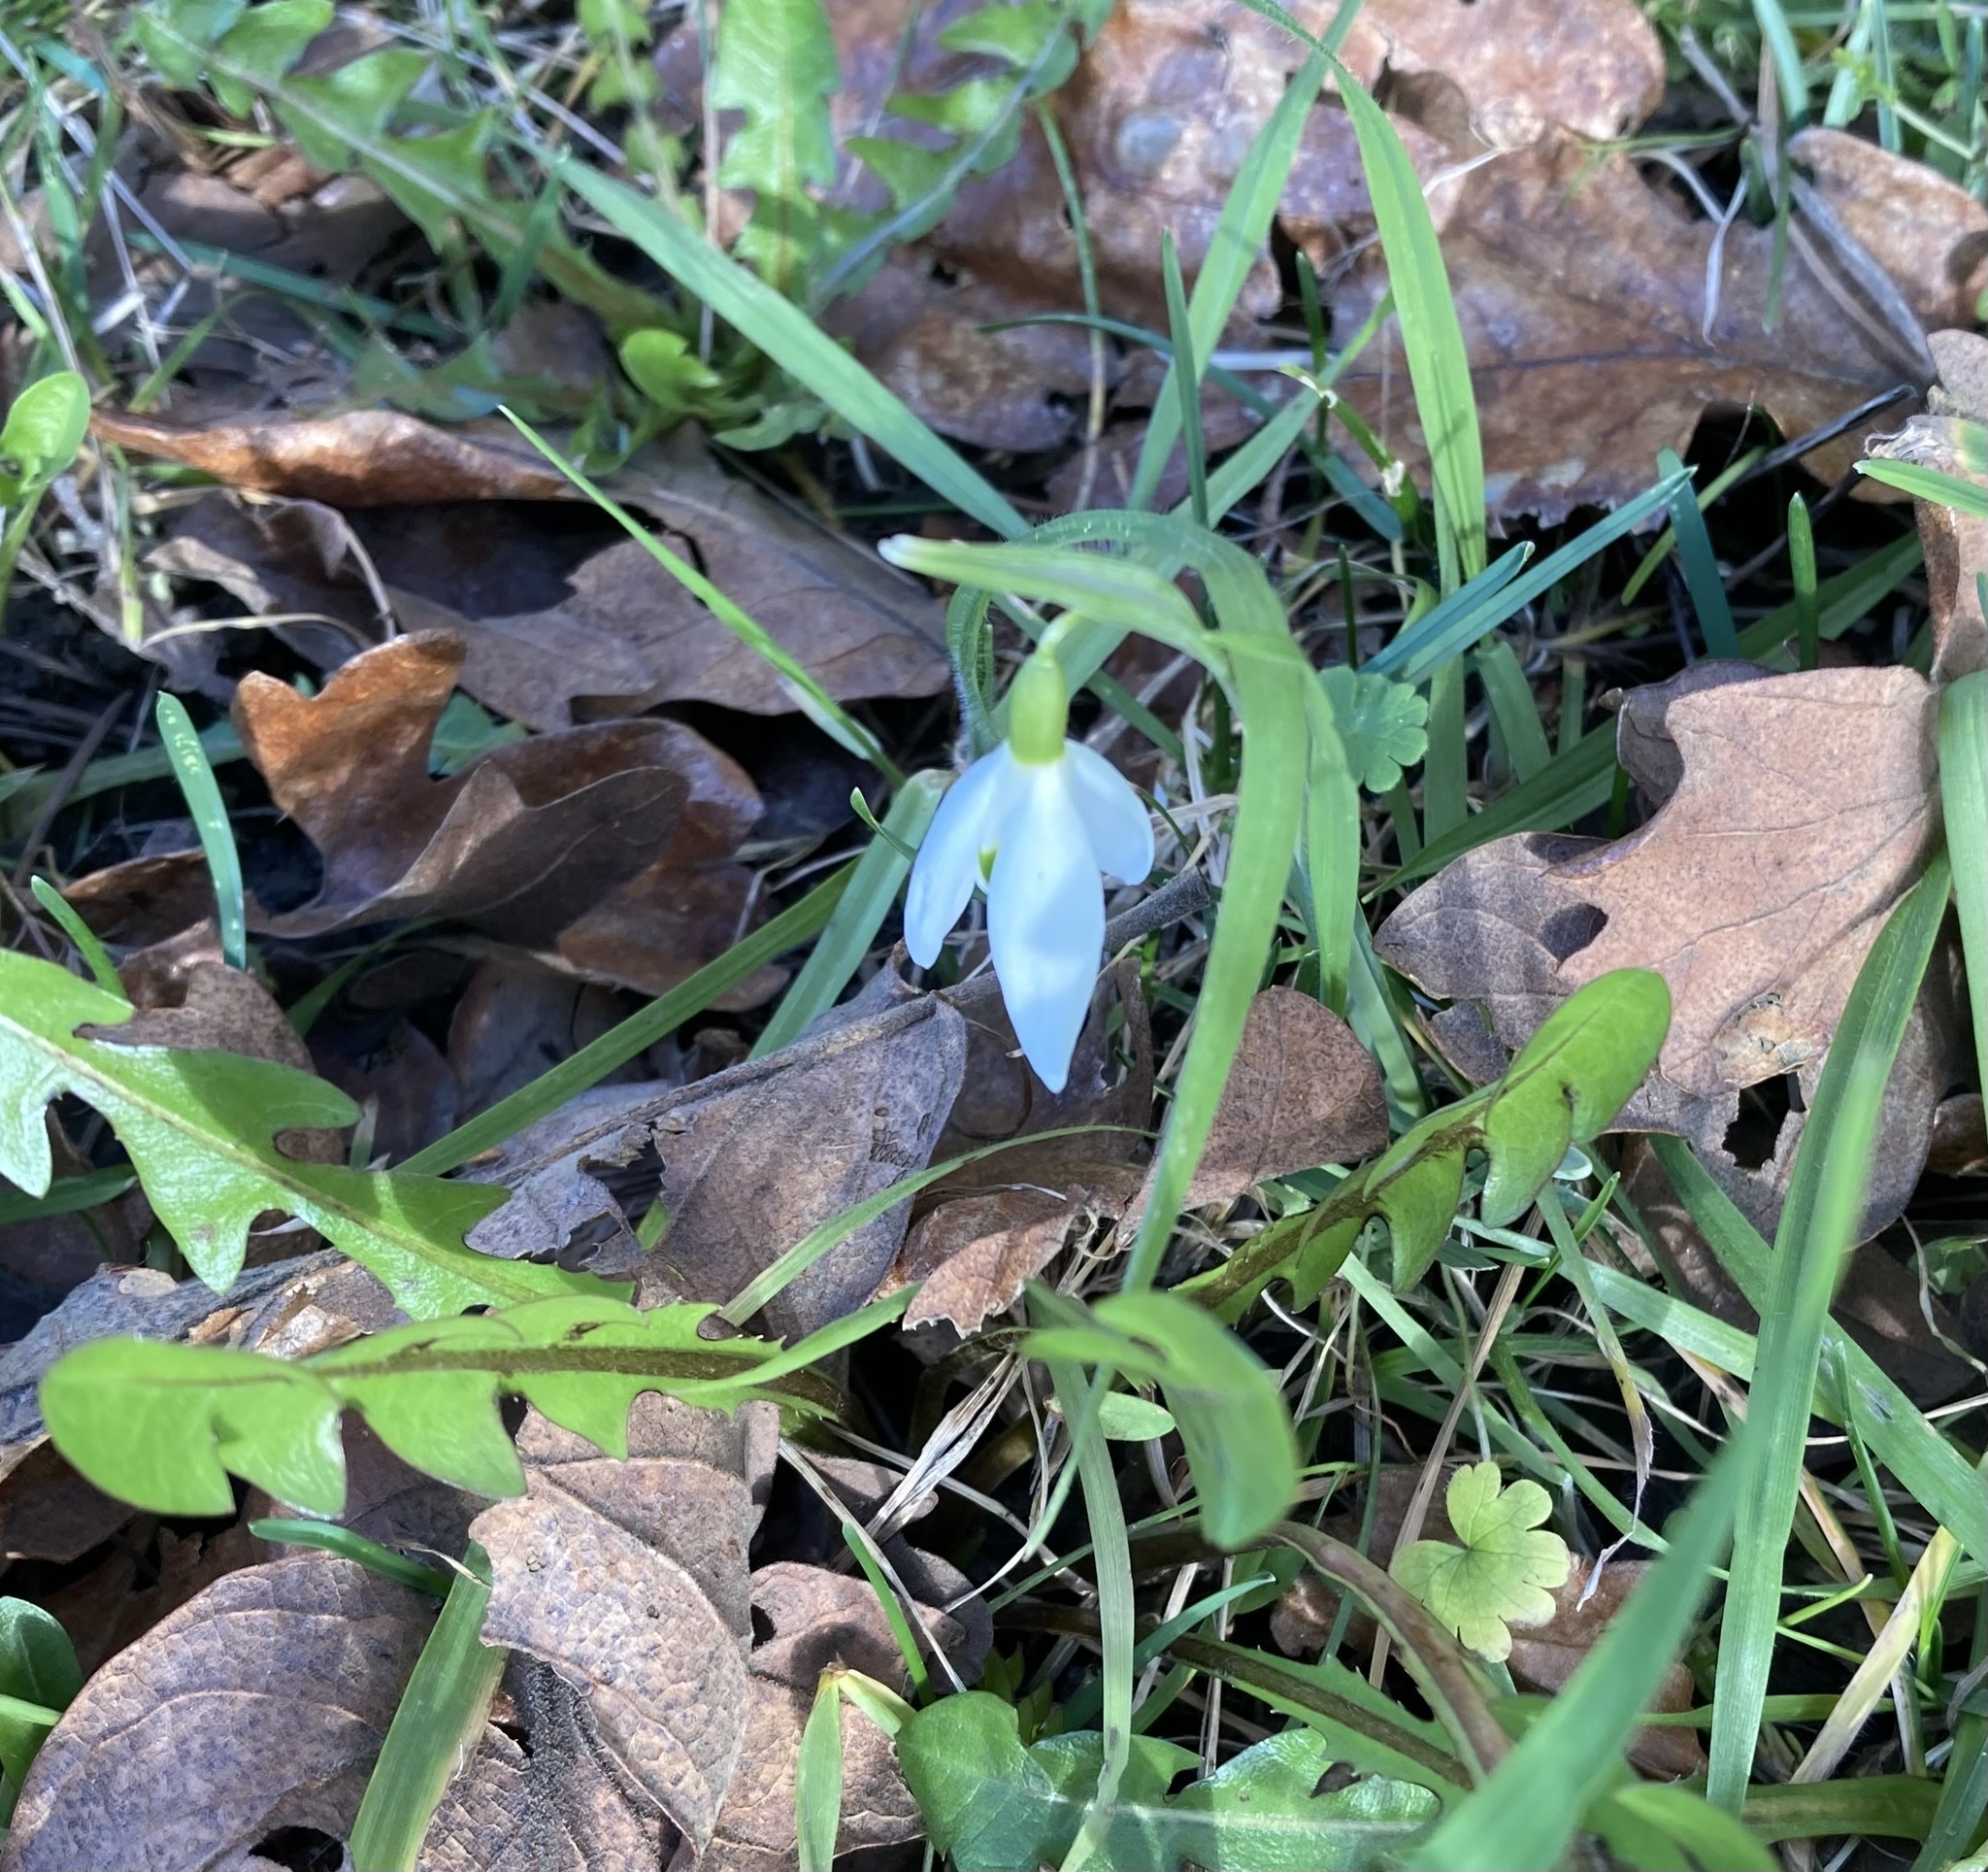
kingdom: Plantae
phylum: Tracheophyta
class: Liliopsida
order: Asparagales
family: Amaryllidaceae
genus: Galanthus
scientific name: Galanthus nivalis
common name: Snowdrop
